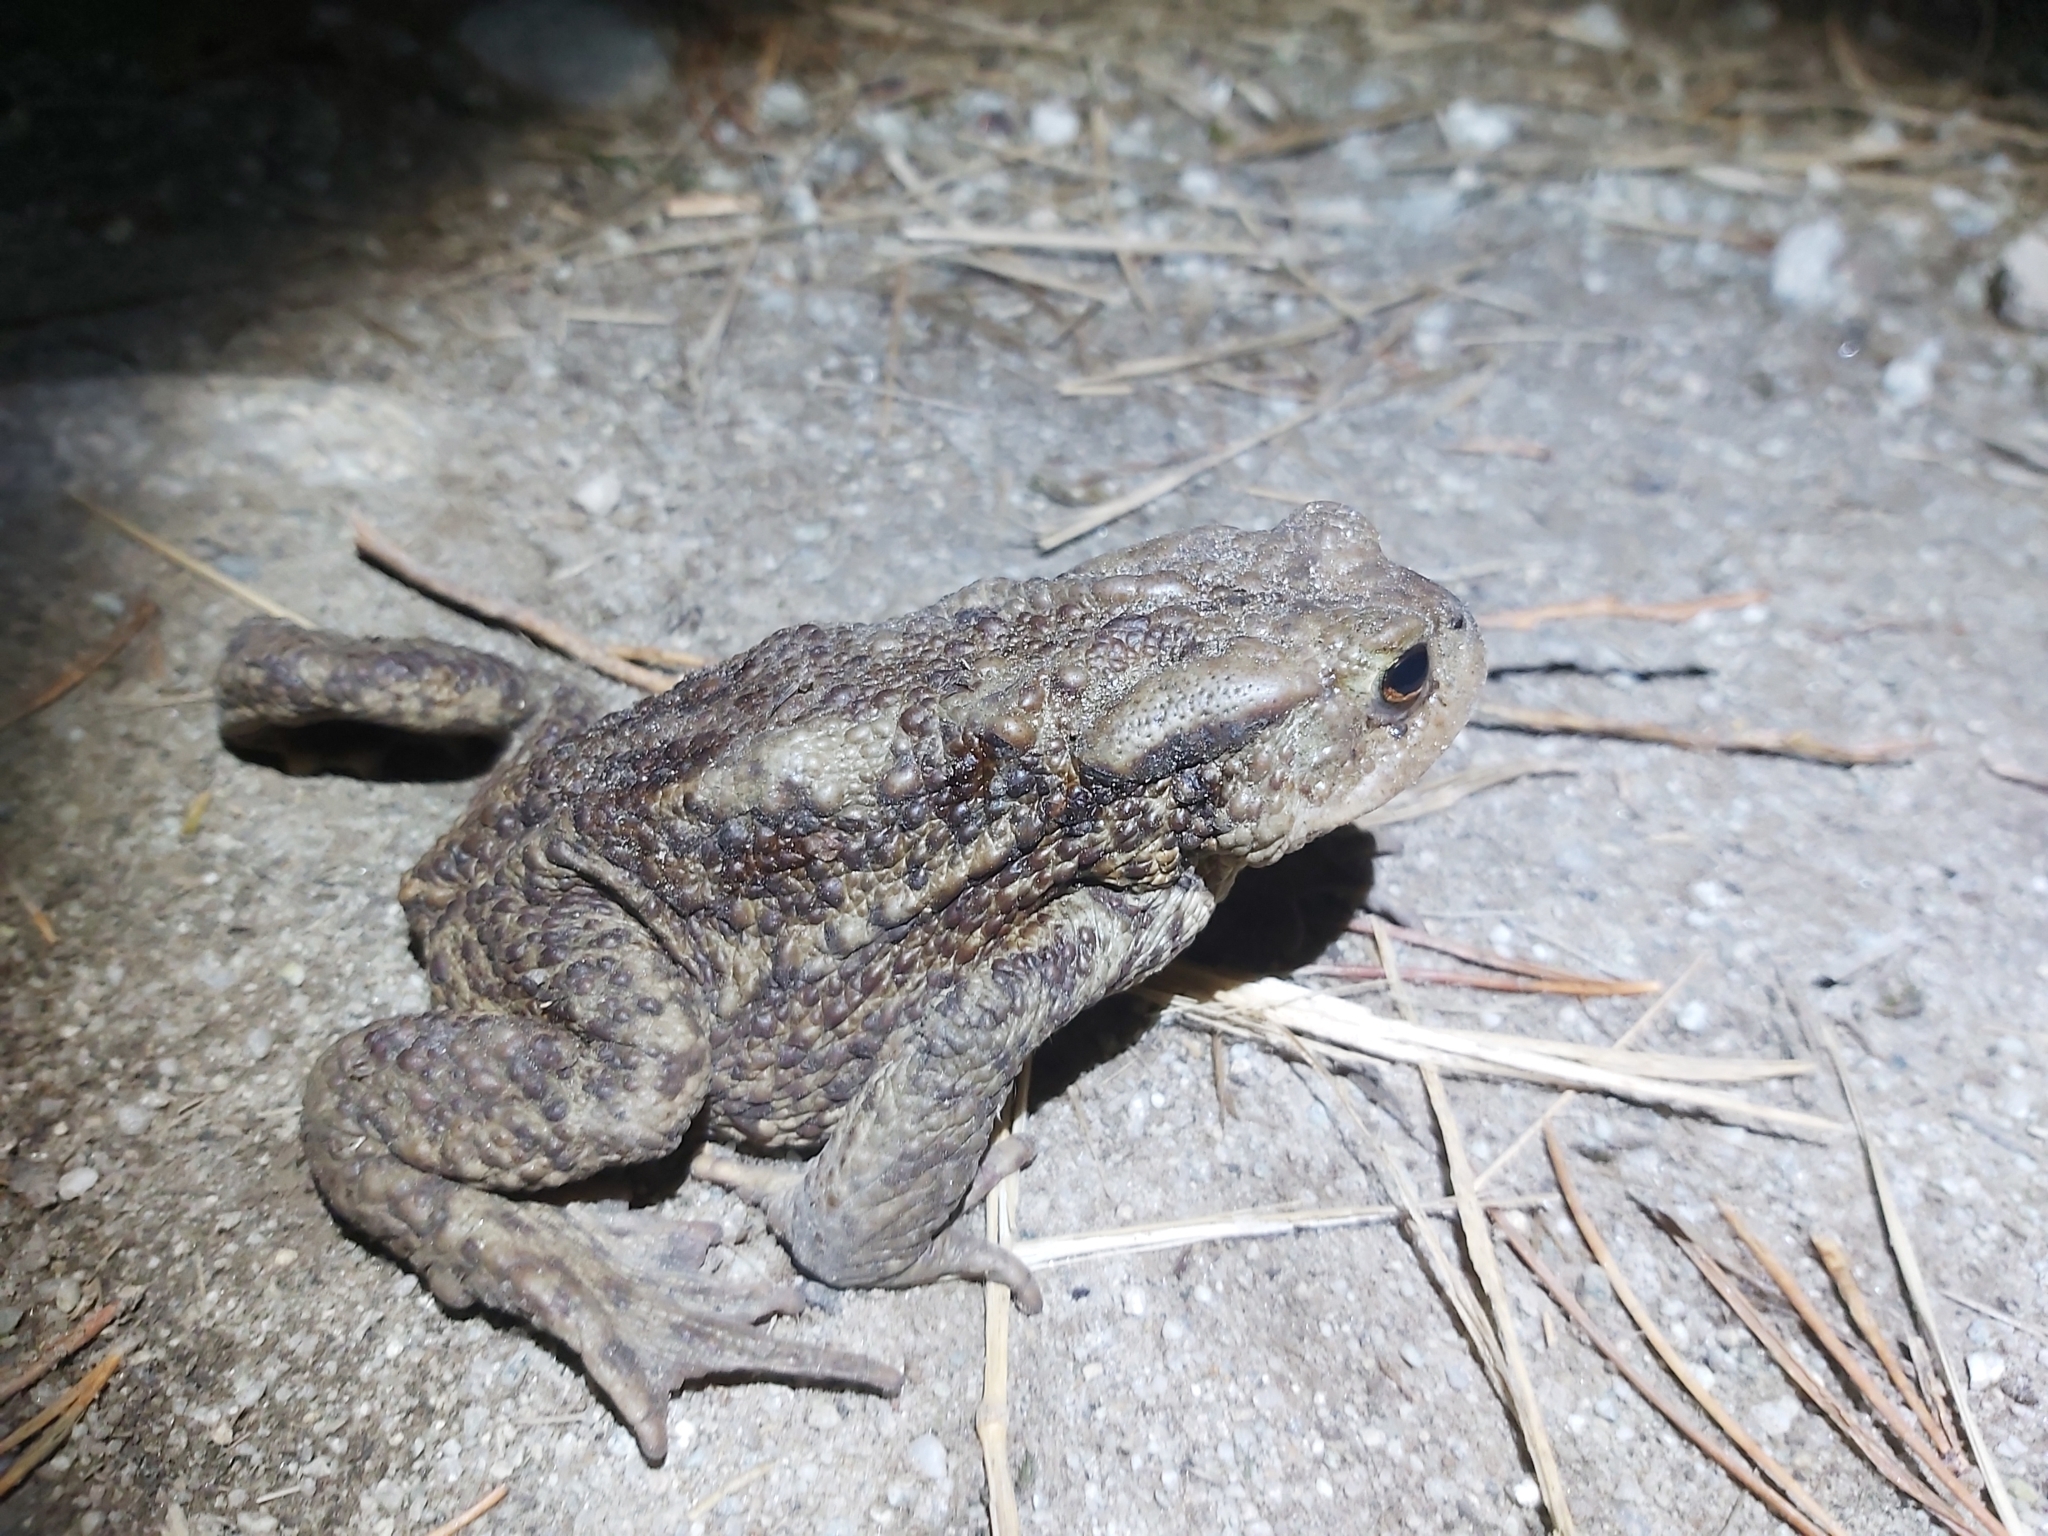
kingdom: Animalia
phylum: Chordata
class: Amphibia
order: Anura
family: Bufonidae
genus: Bufo
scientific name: Bufo bufo
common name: Common toad
